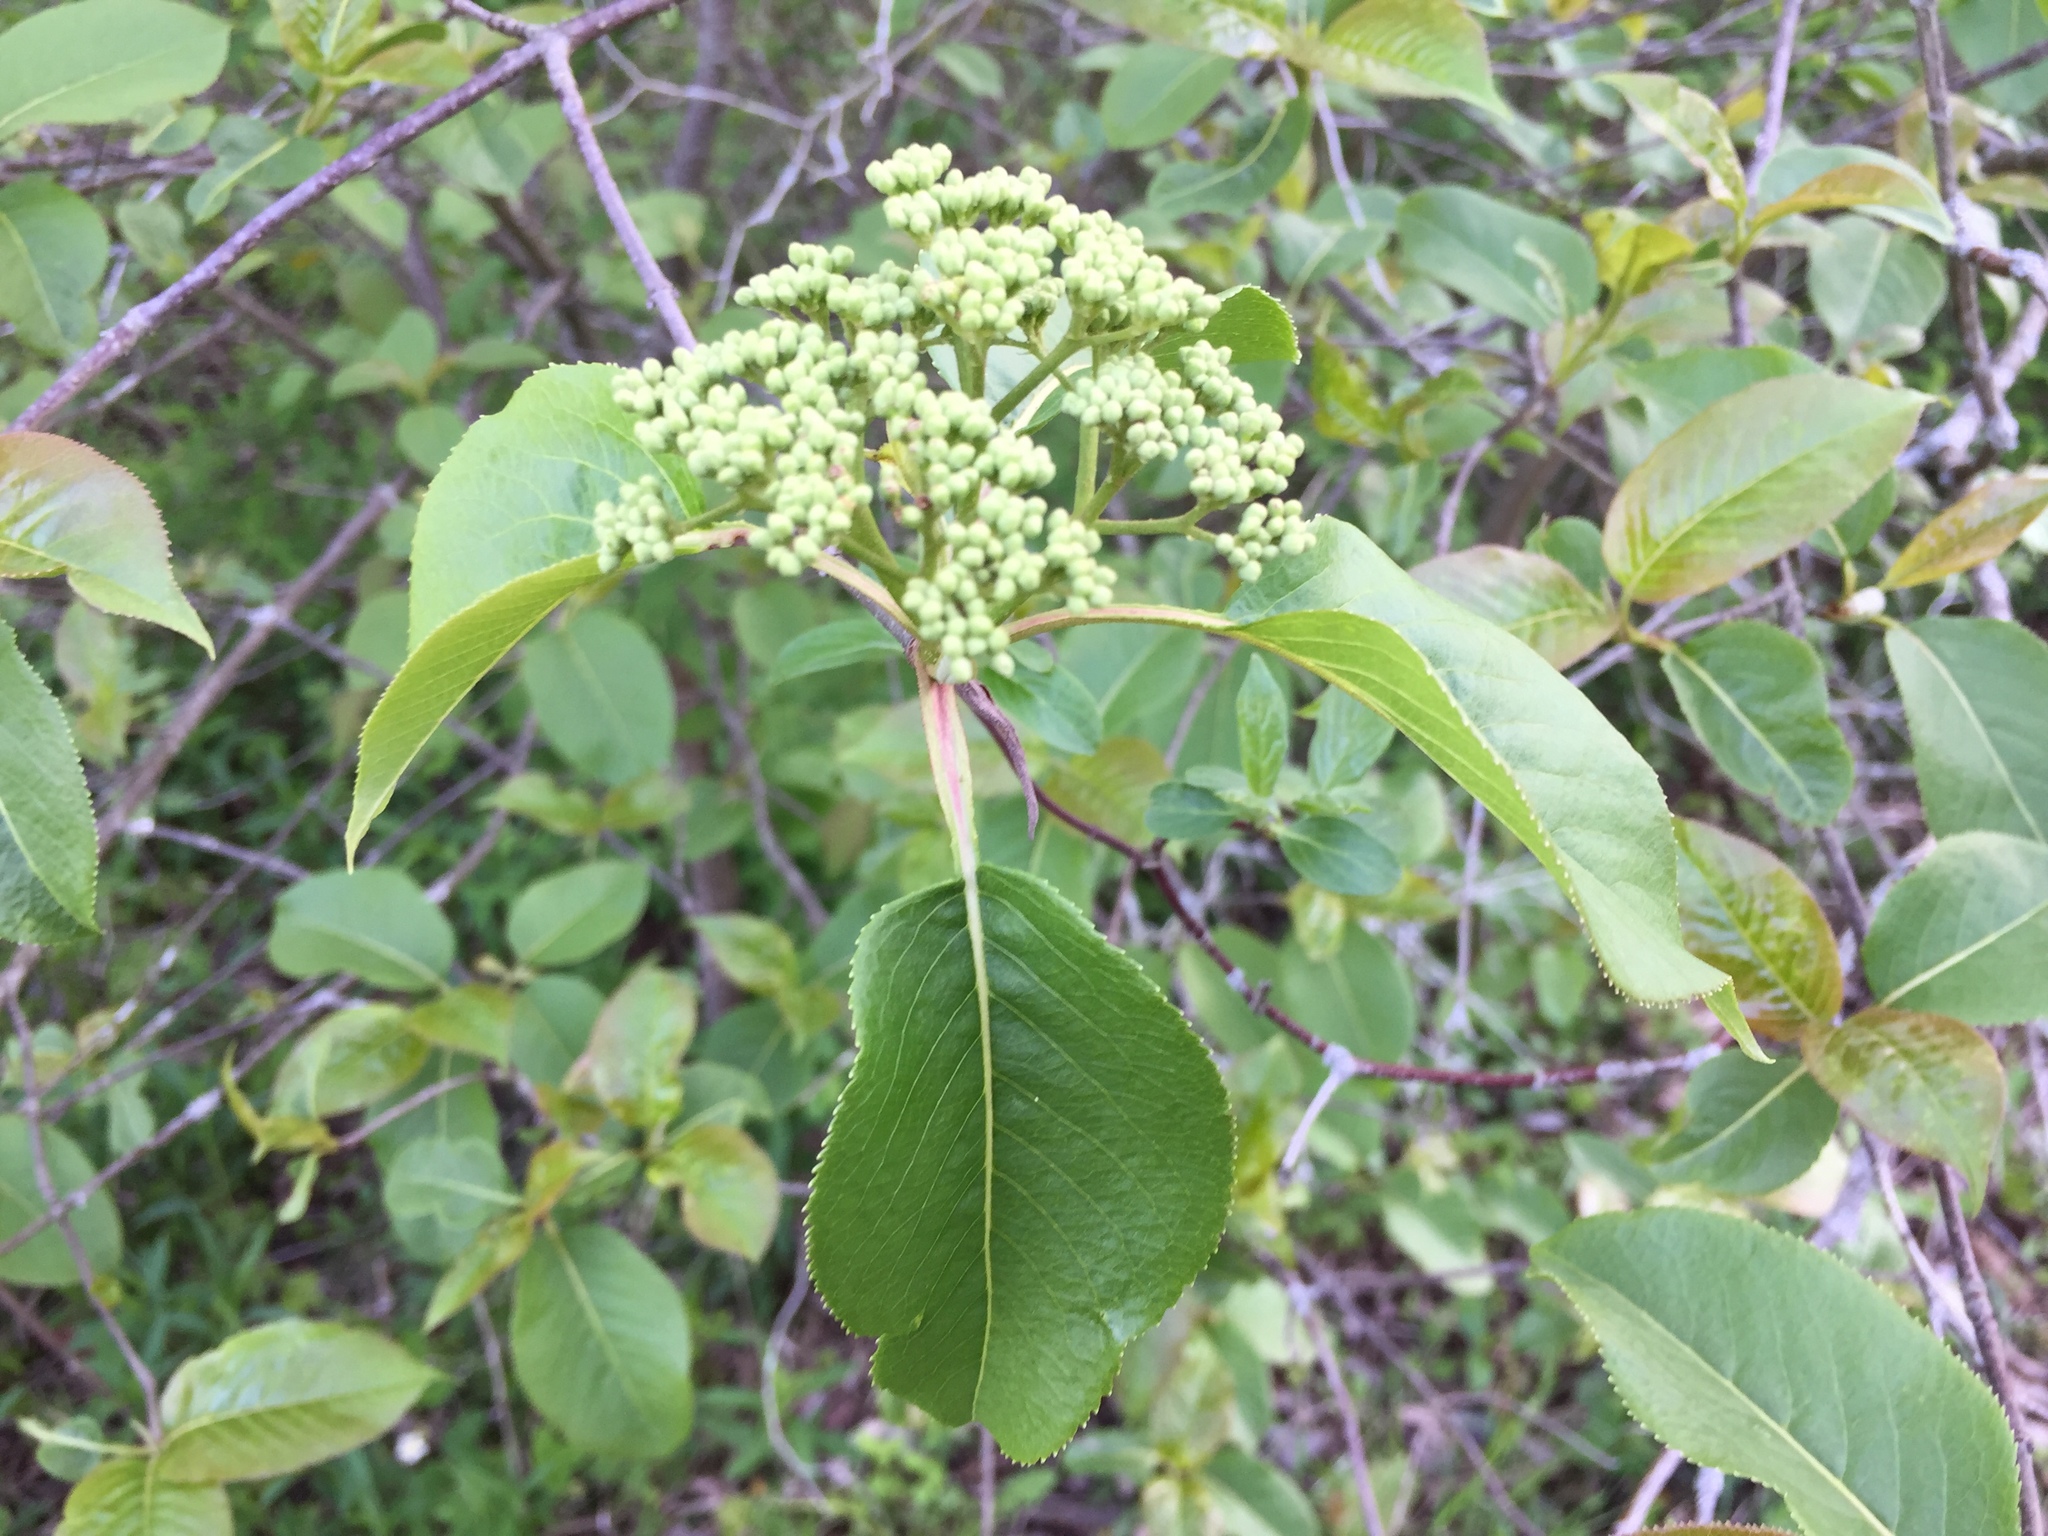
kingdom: Plantae
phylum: Tracheophyta
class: Magnoliopsida
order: Dipsacales
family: Viburnaceae
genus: Viburnum
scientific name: Viburnum lentago
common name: Black haw
